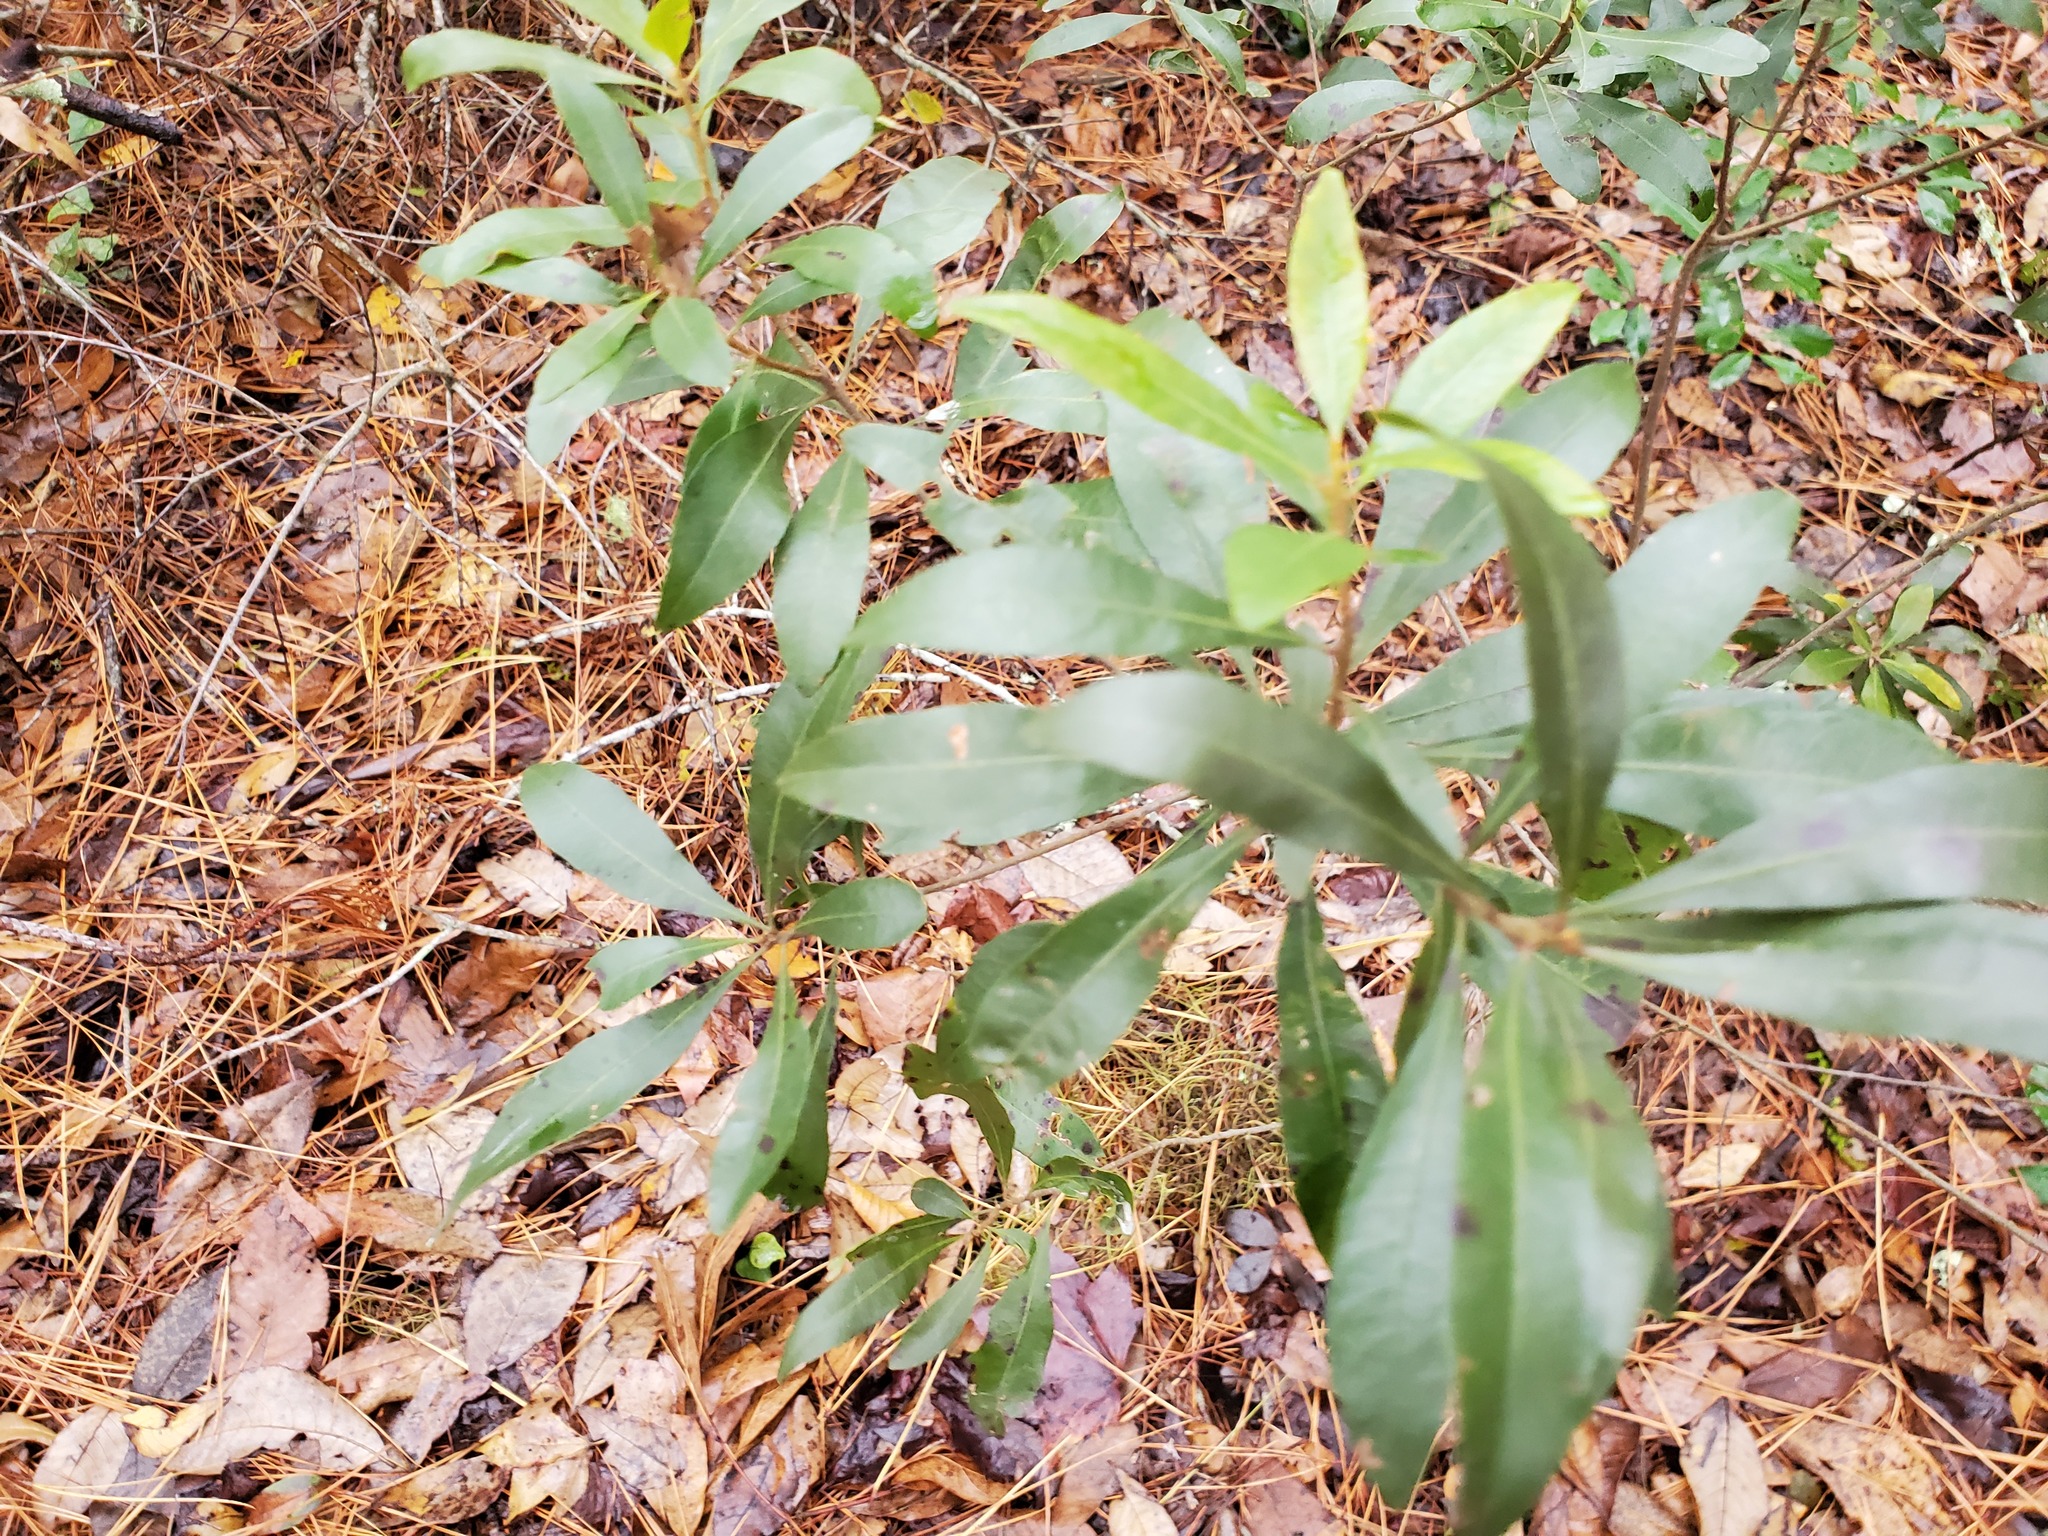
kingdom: Plantae
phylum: Tracheophyta
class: Magnoliopsida
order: Fagales
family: Myricaceae
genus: Morella
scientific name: Morella cerifera
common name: Wax myrtle
